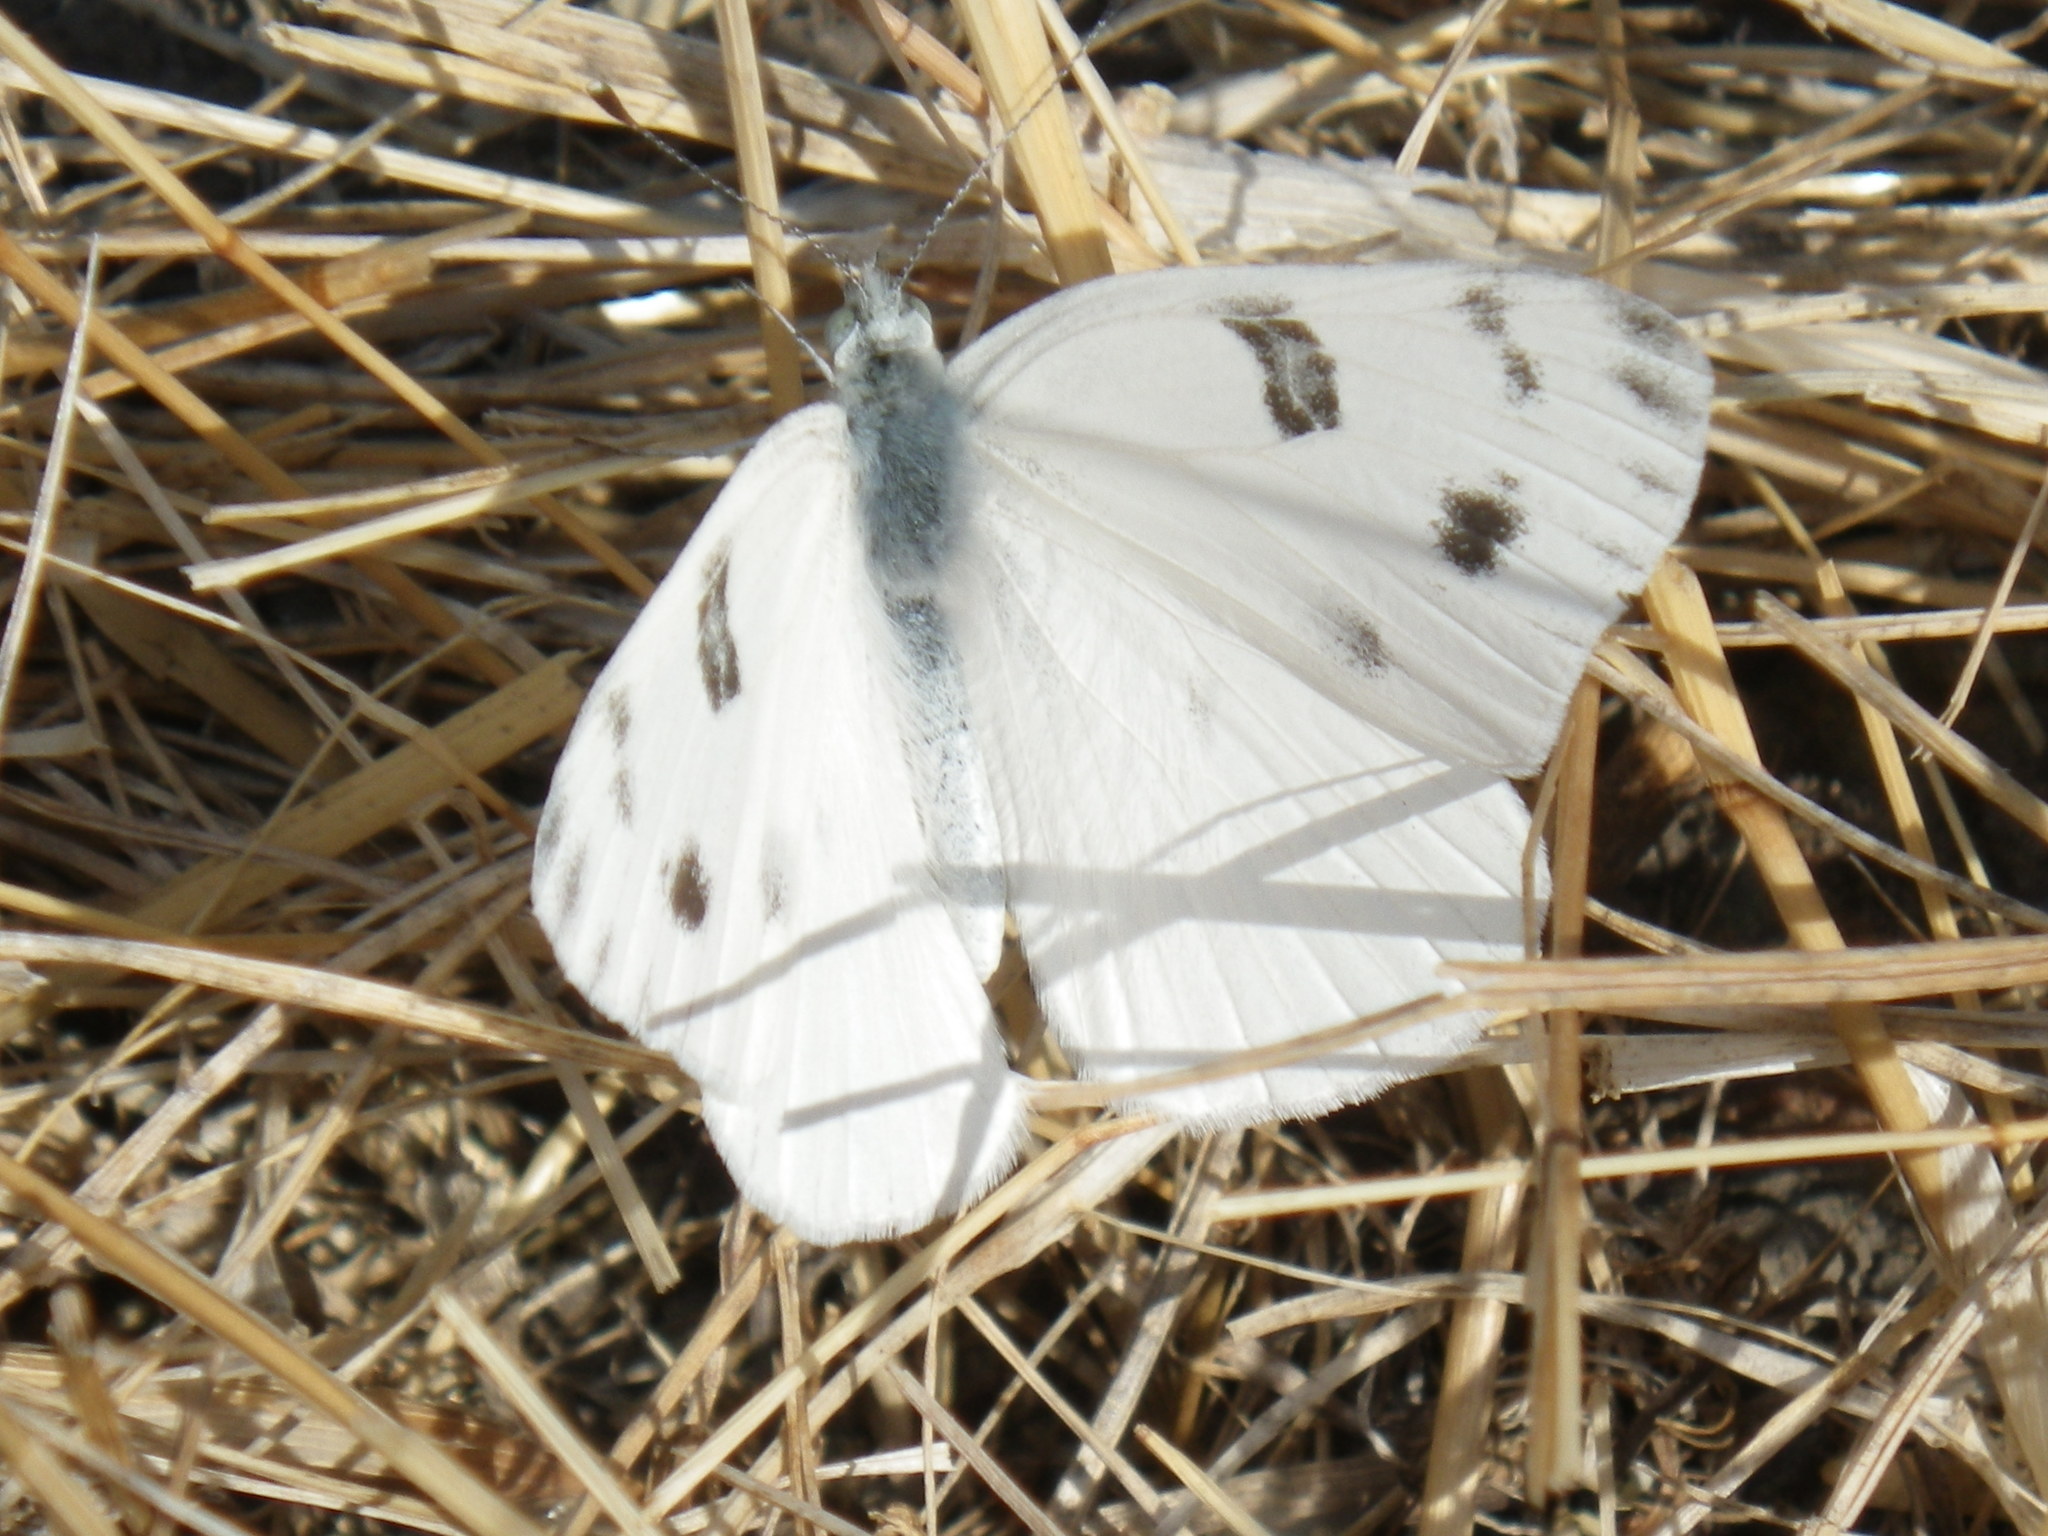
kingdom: Animalia
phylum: Arthropoda
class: Insecta
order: Lepidoptera
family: Pieridae
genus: Pontia
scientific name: Pontia protodice
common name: Checkered white
